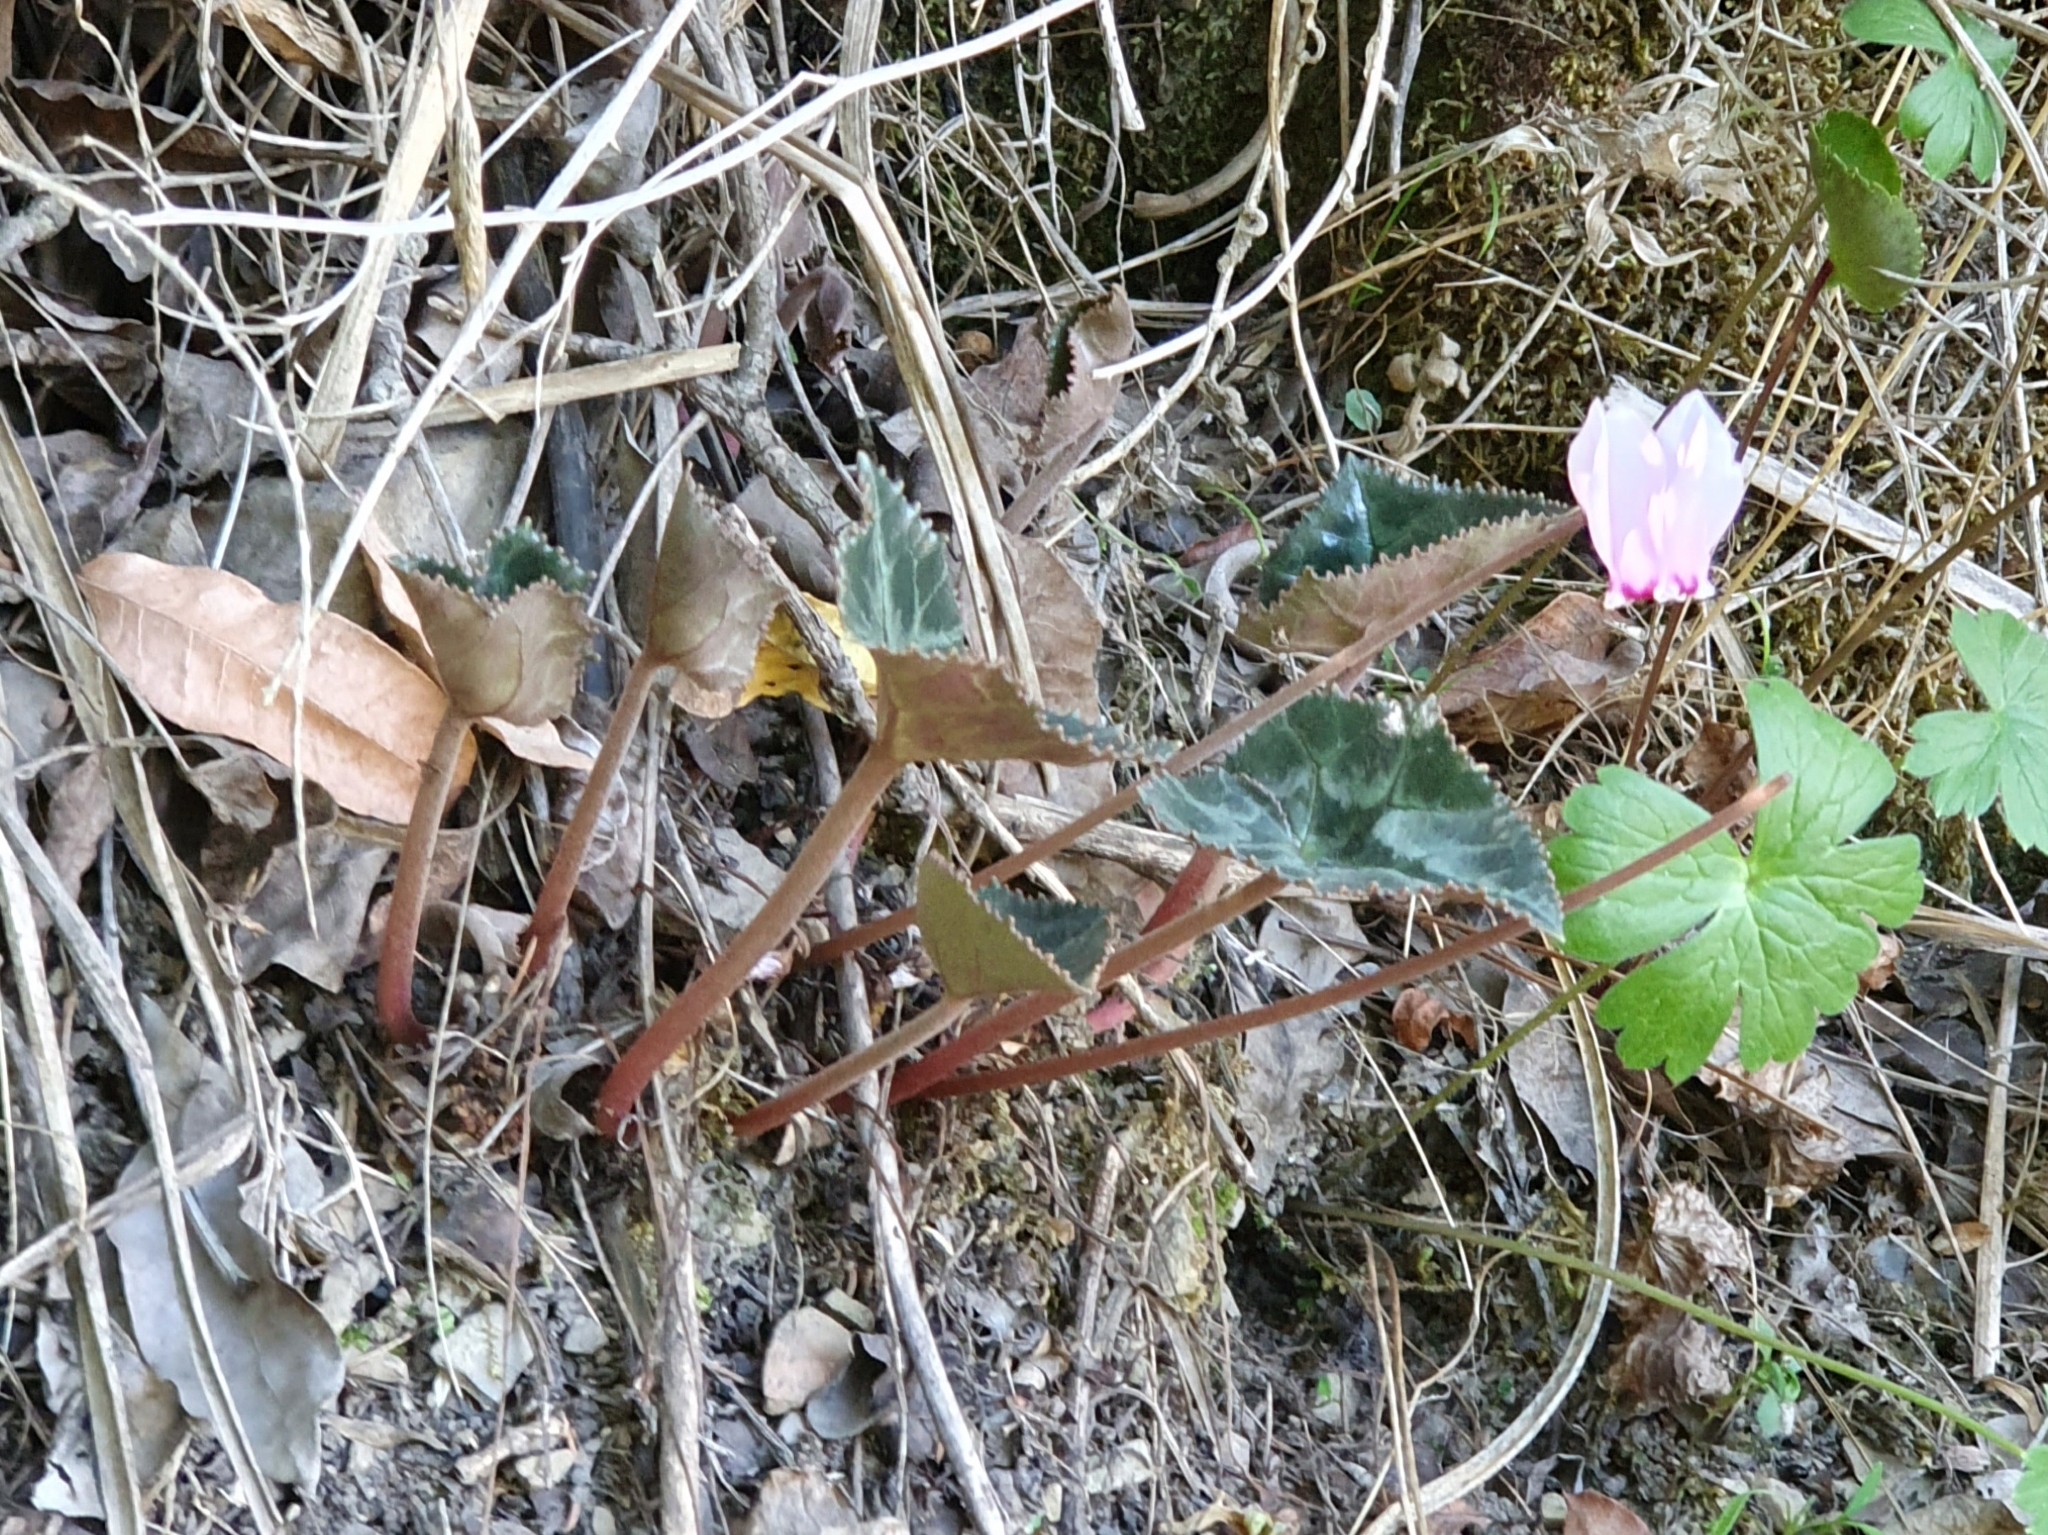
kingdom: Plantae
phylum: Tracheophyta
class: Magnoliopsida
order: Ericales
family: Primulaceae
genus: Cyclamen
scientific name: Cyclamen africanum
